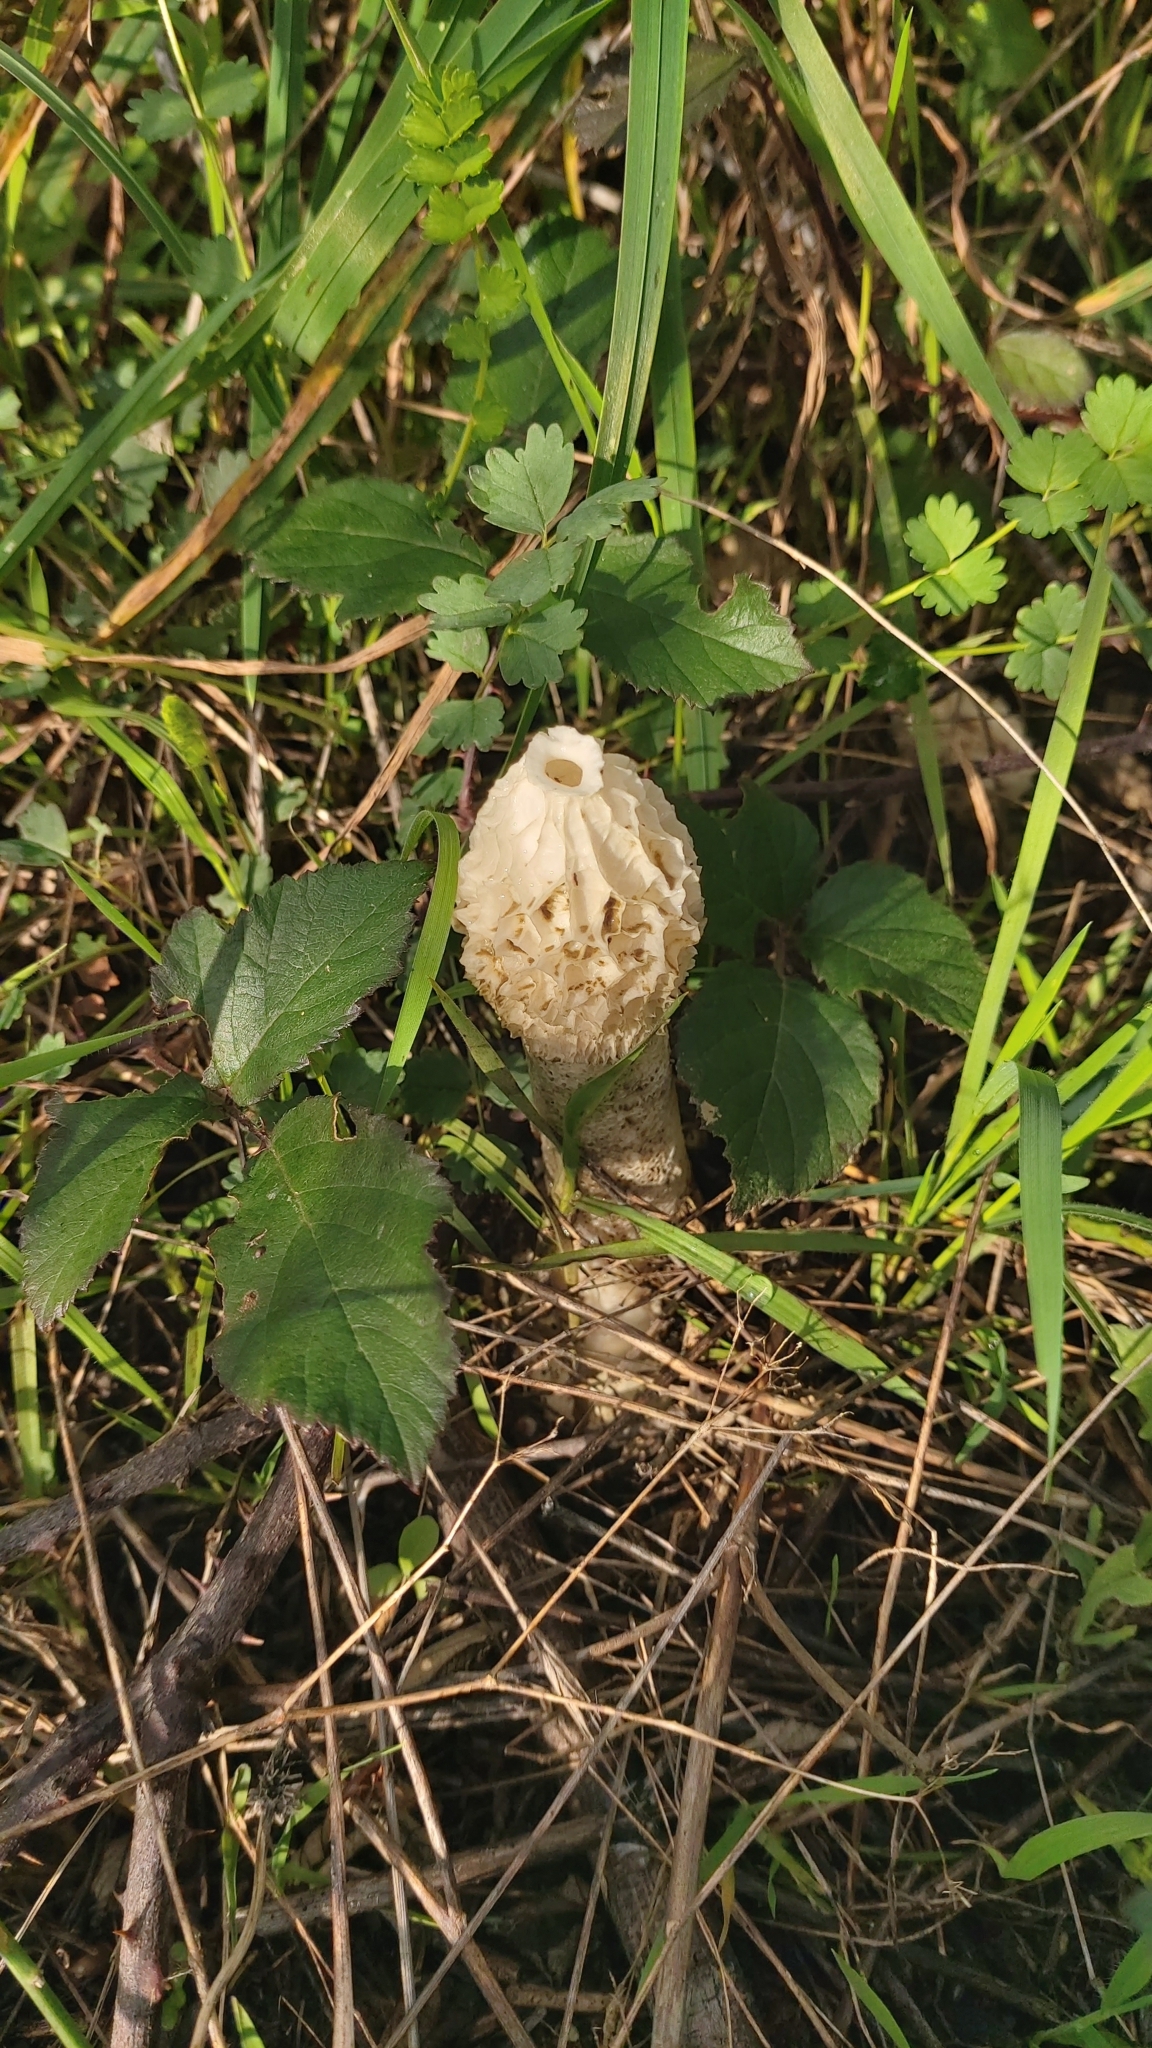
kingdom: Fungi
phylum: Basidiomycota
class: Agaricomycetes
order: Phallales
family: Phallaceae
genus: Phallus
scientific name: Phallus impudicus
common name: Common stinkhorn
